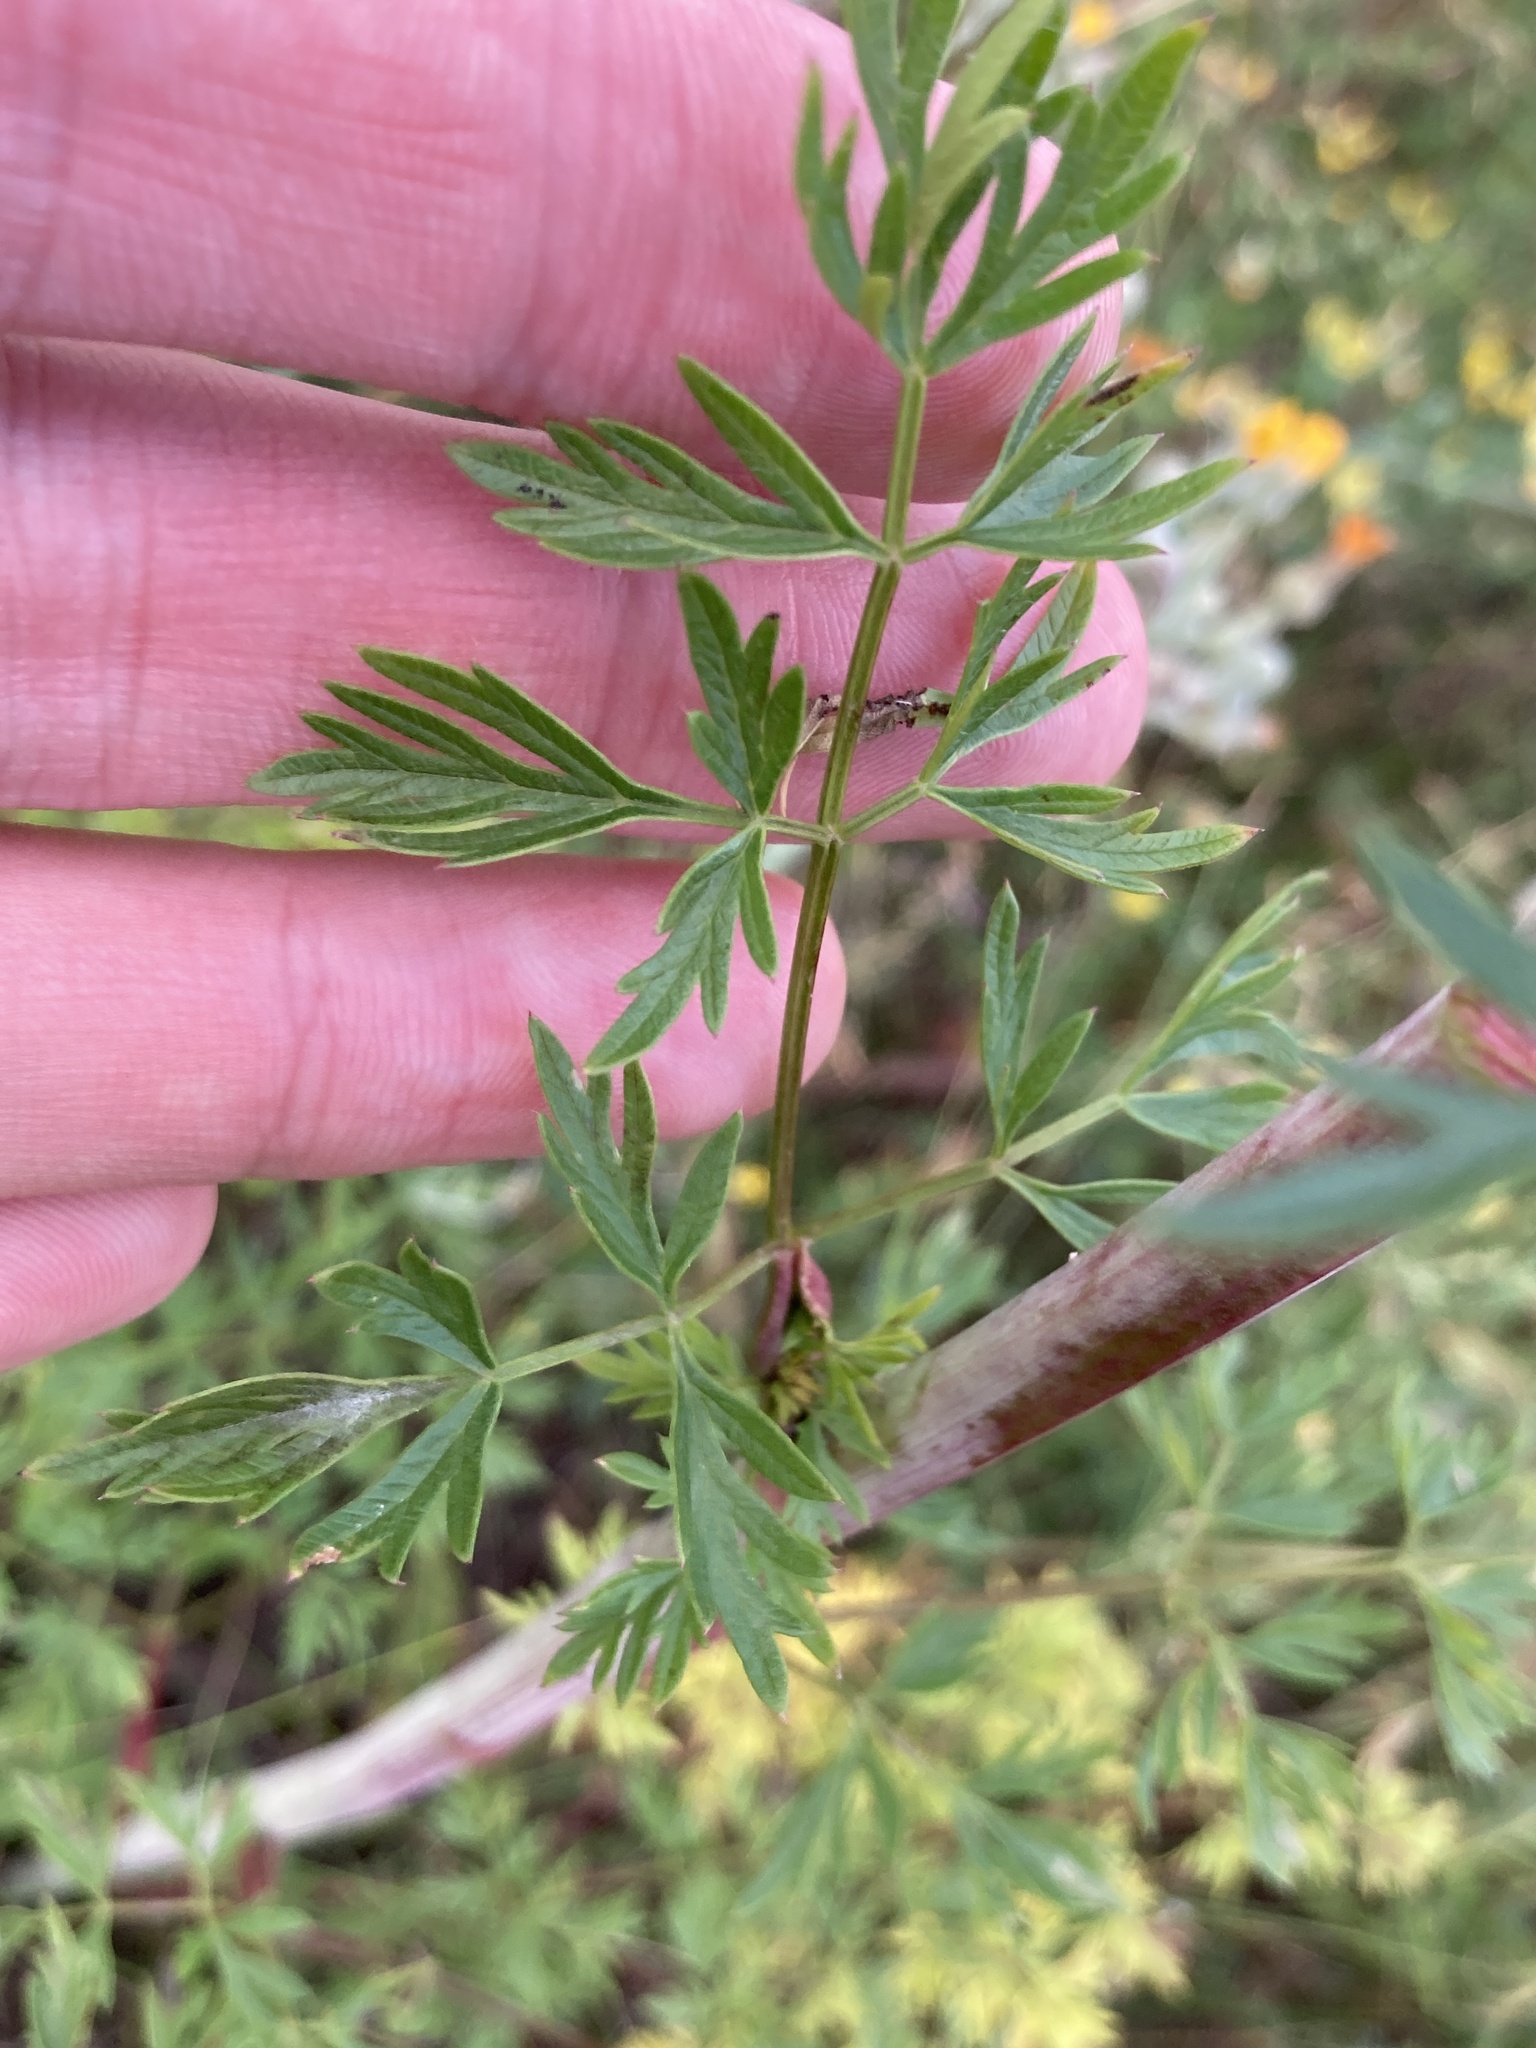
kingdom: Plantae
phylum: Tracheophyta
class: Magnoliopsida
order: Apiales
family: Apiaceae
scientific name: Apiaceae
